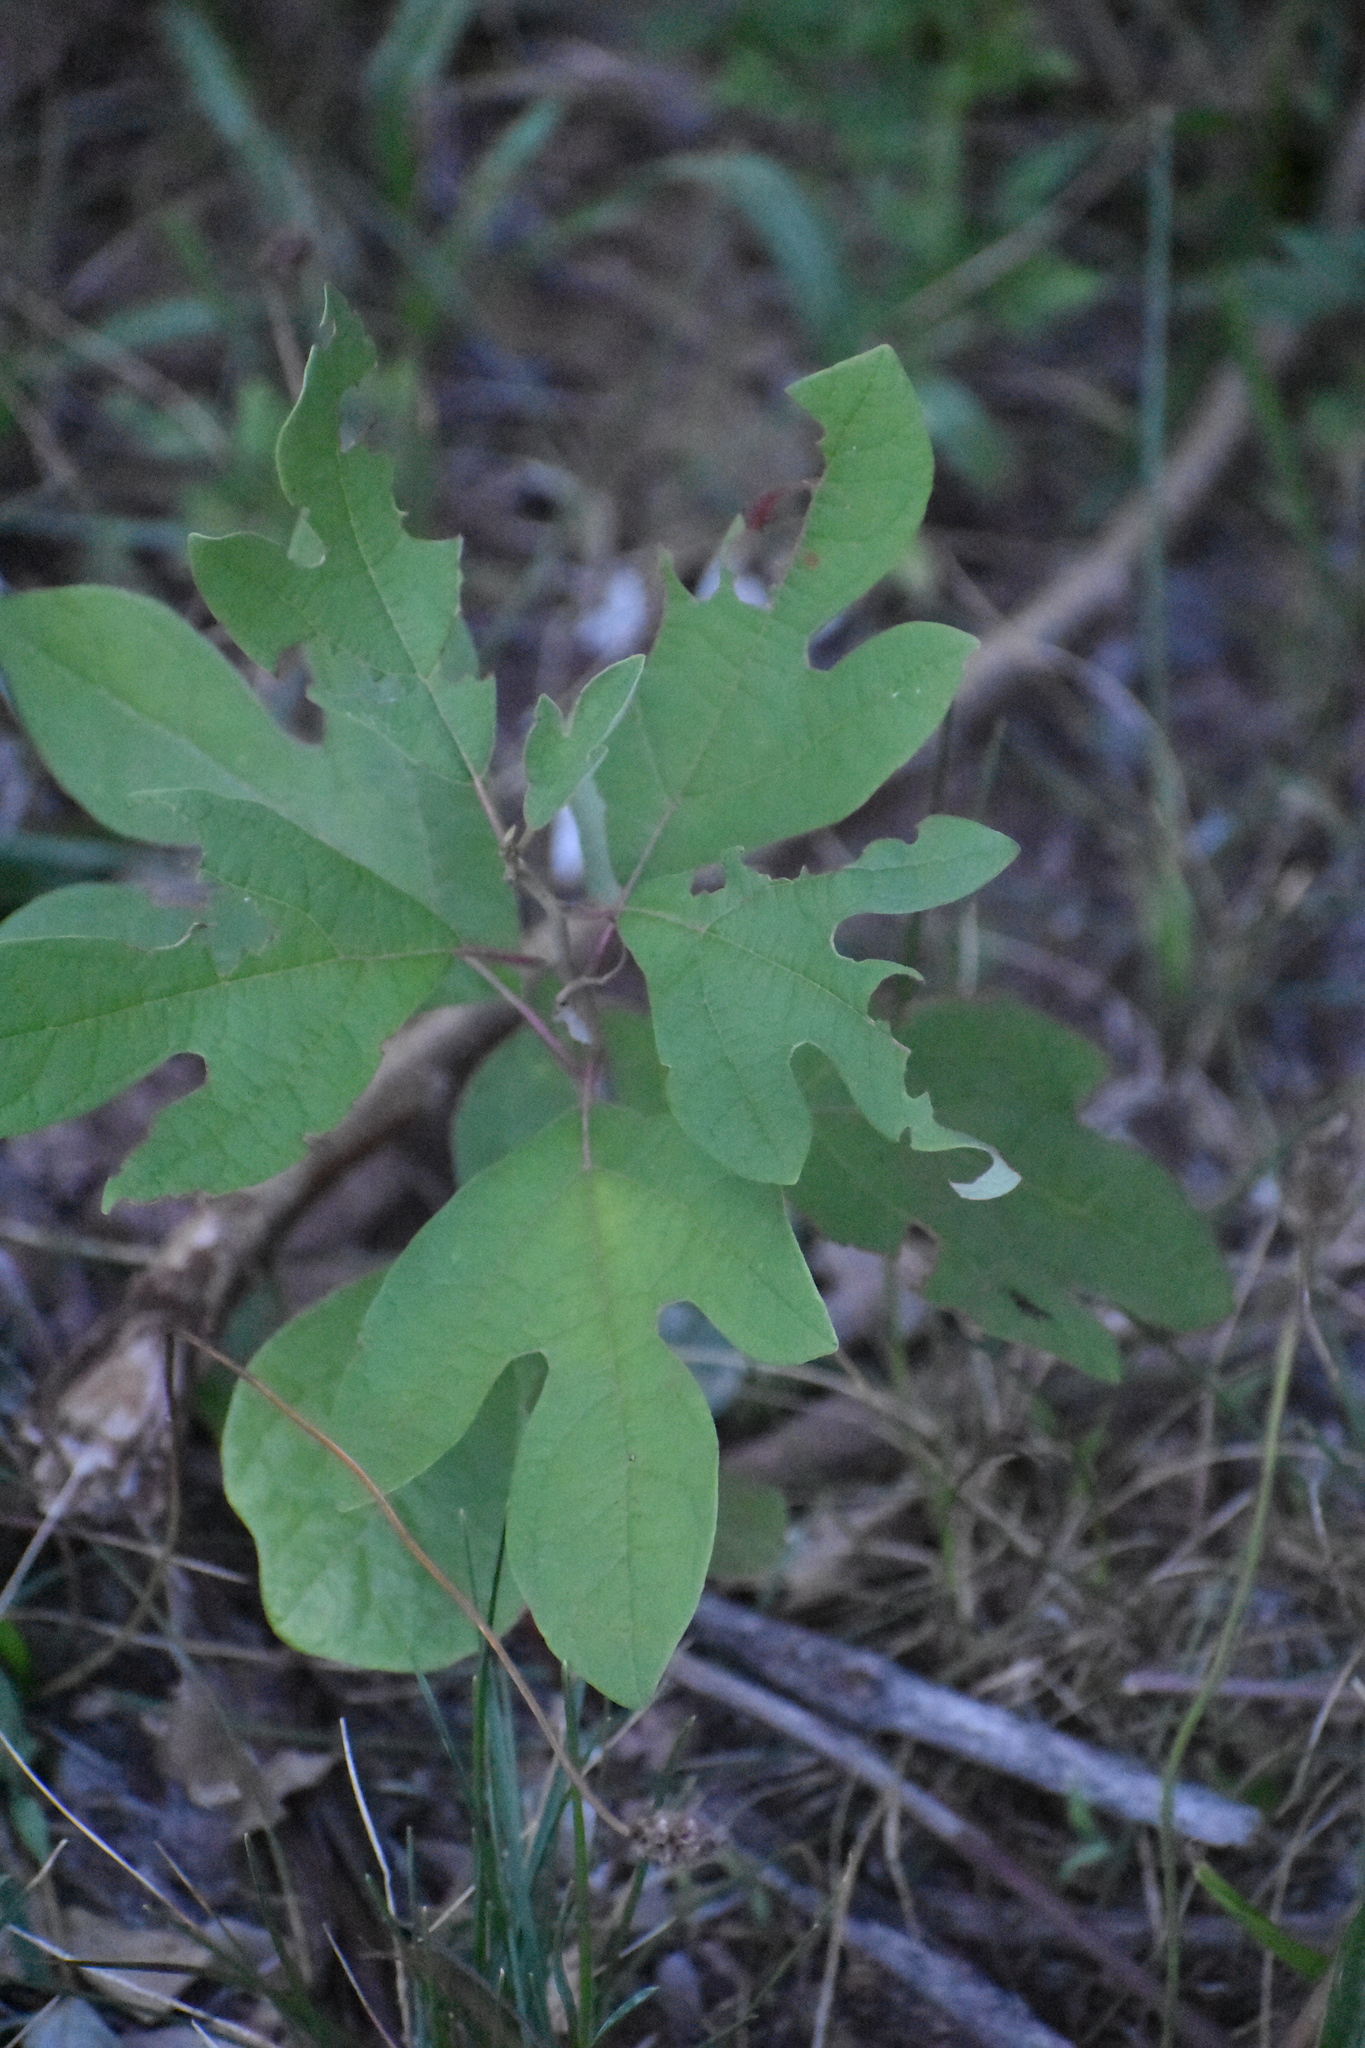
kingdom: Plantae
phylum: Tracheophyta
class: Magnoliopsida
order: Laurales
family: Lauraceae
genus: Sassafras
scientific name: Sassafras albidum
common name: Sassafras
